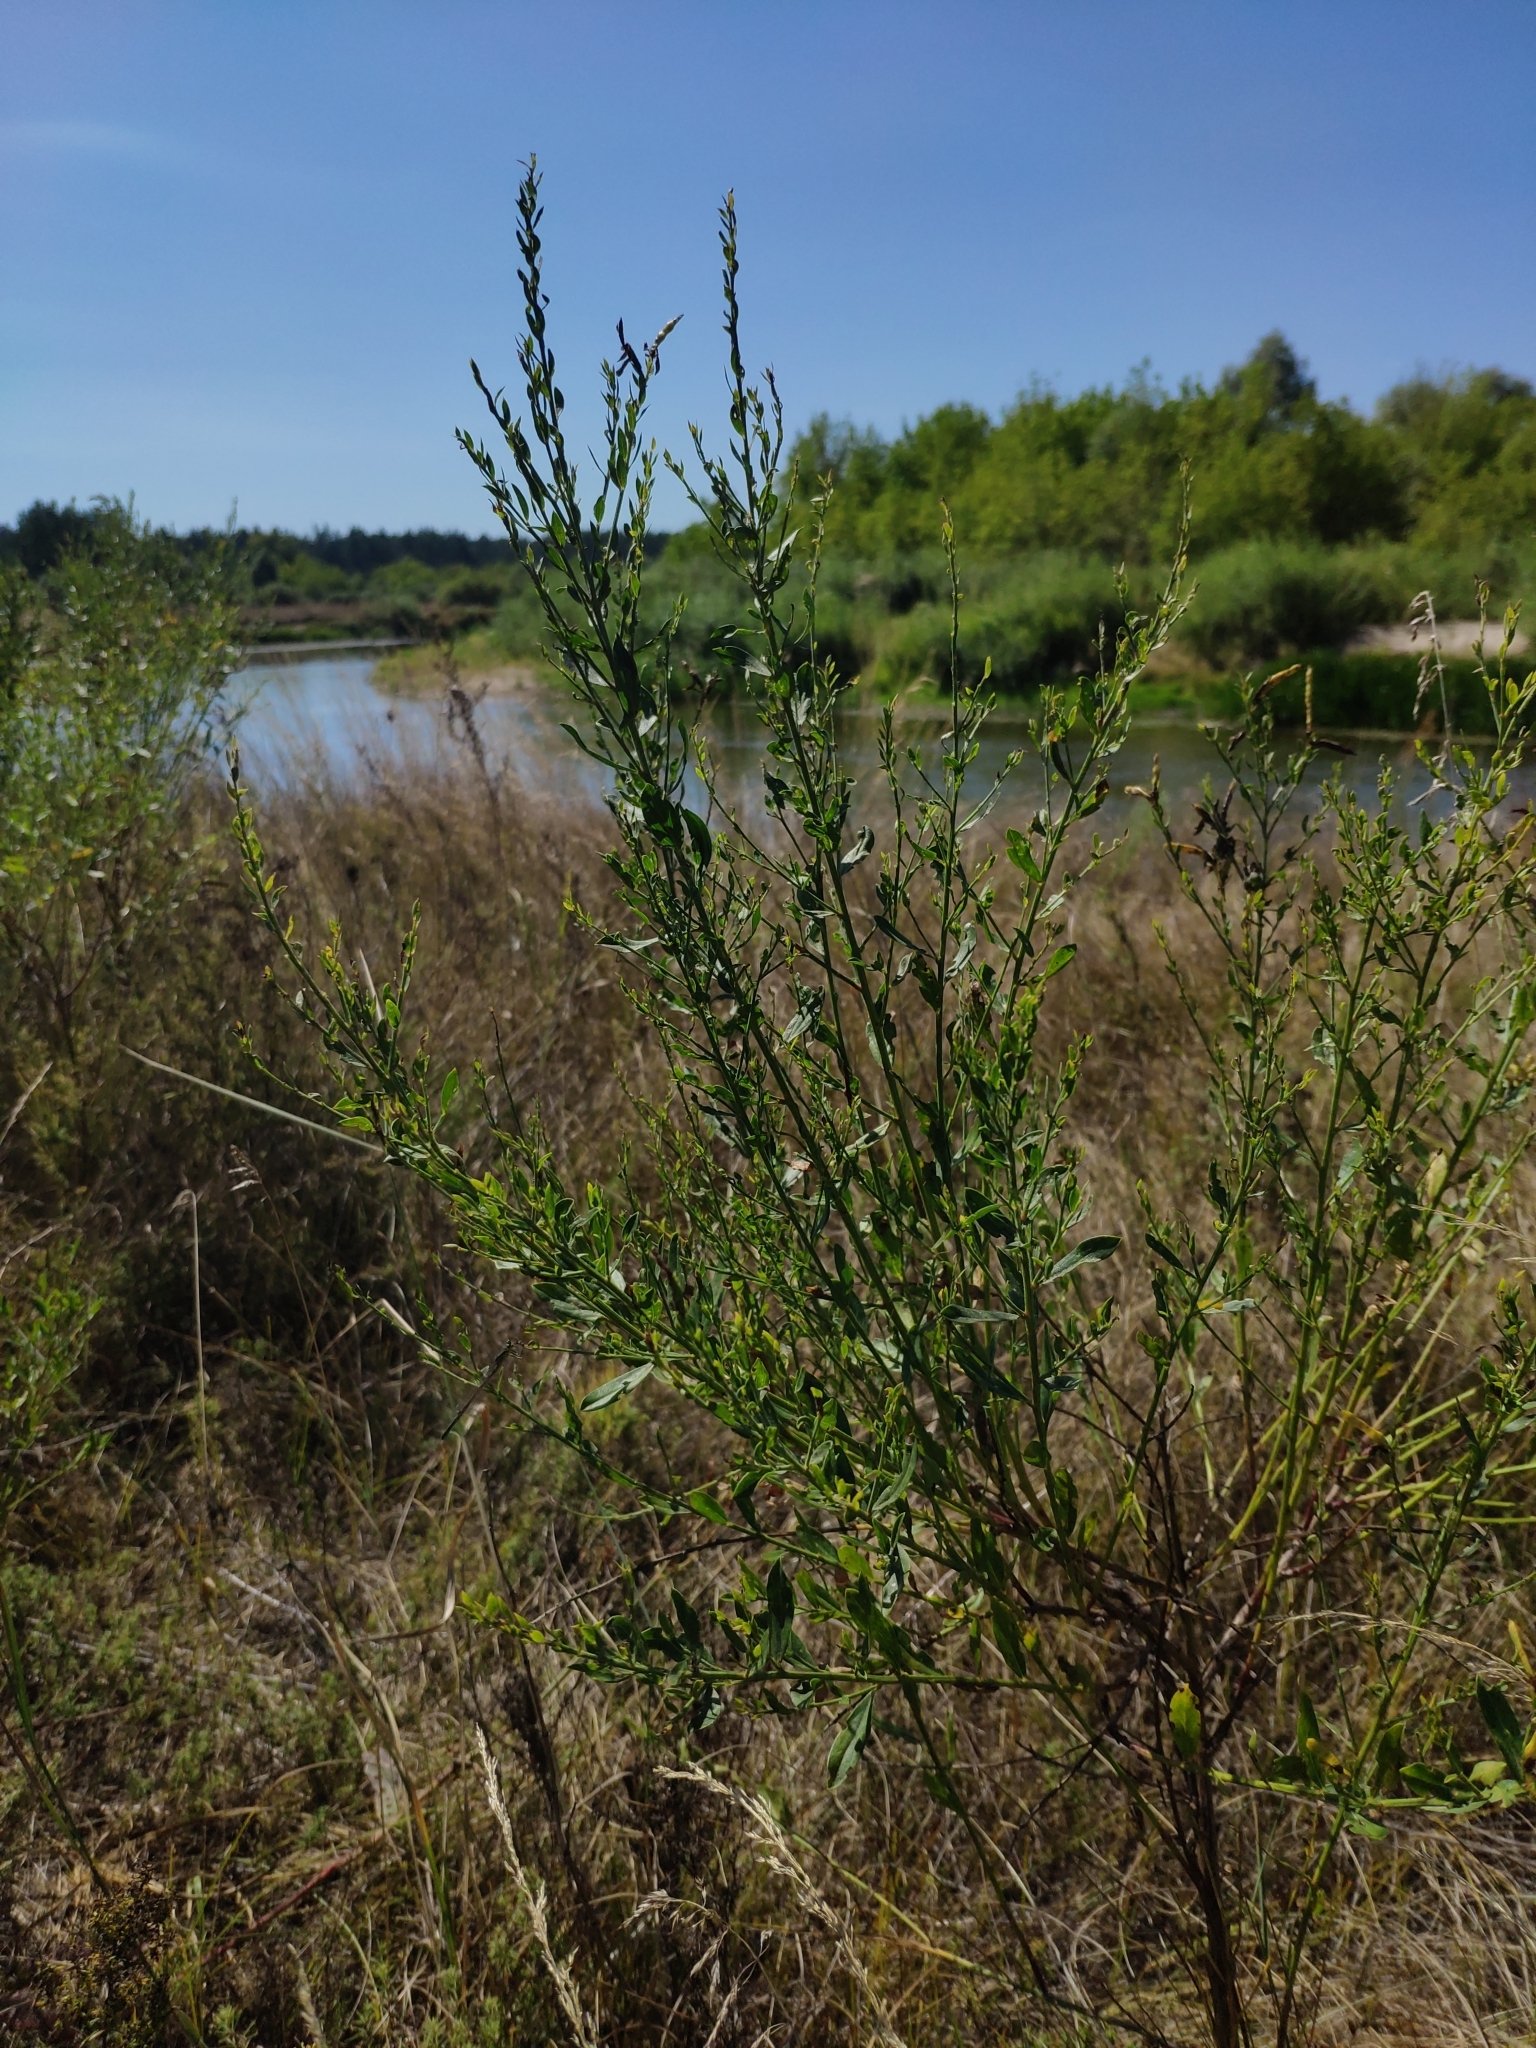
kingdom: Plantae
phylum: Tracheophyta
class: Magnoliopsida
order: Fabales
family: Fabaceae
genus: Genista
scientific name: Genista tinctoria
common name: Dyer's greenweed
